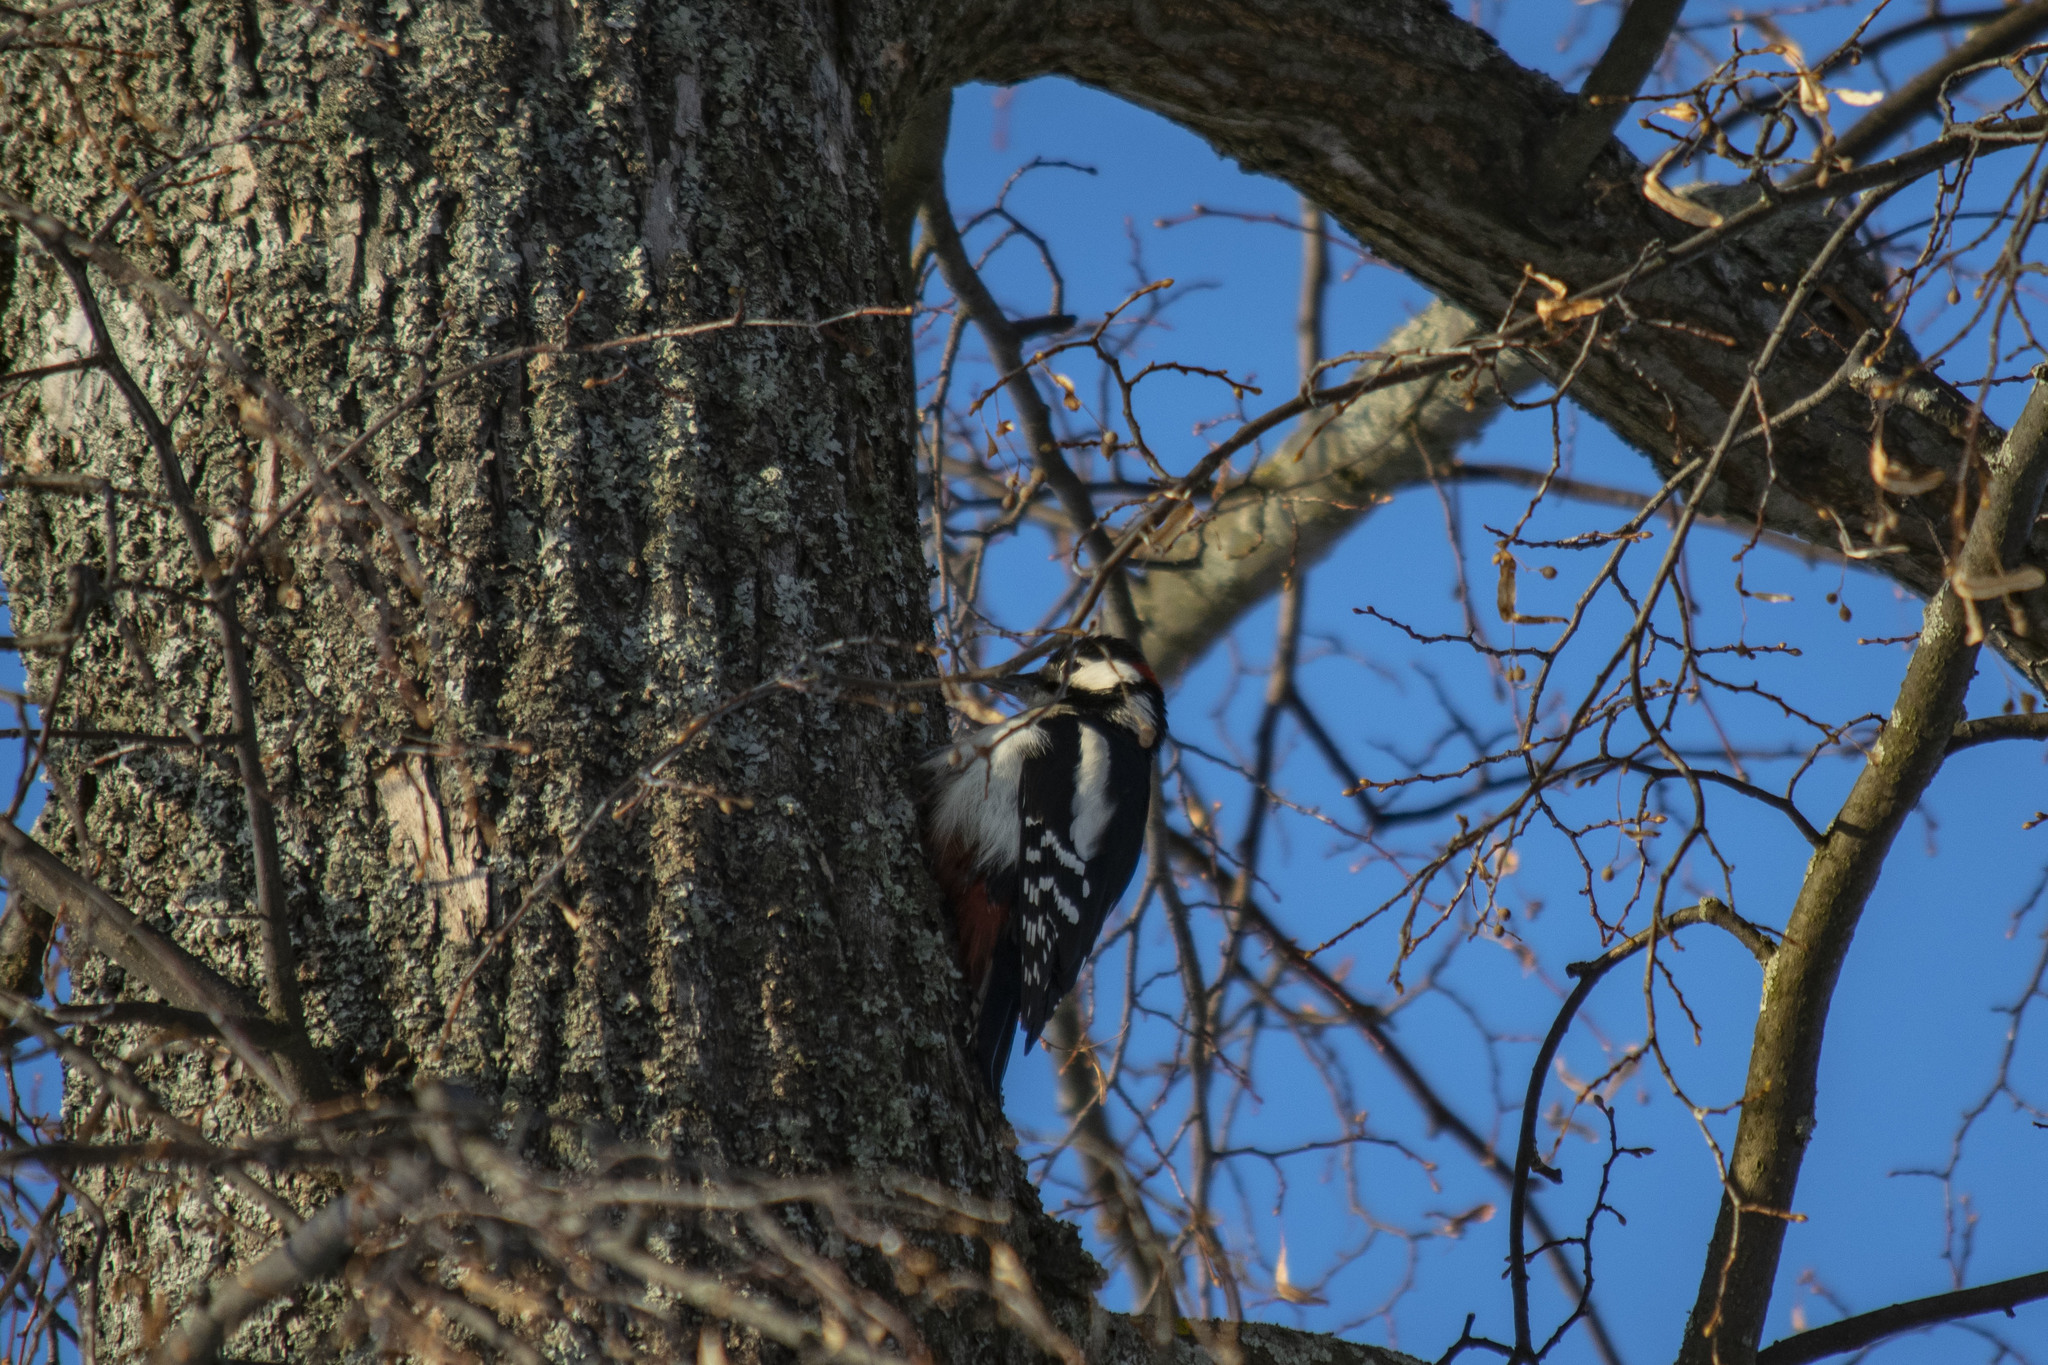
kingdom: Animalia
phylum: Chordata
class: Aves
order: Piciformes
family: Picidae
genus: Dendrocopos
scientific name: Dendrocopos major
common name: Great spotted woodpecker
